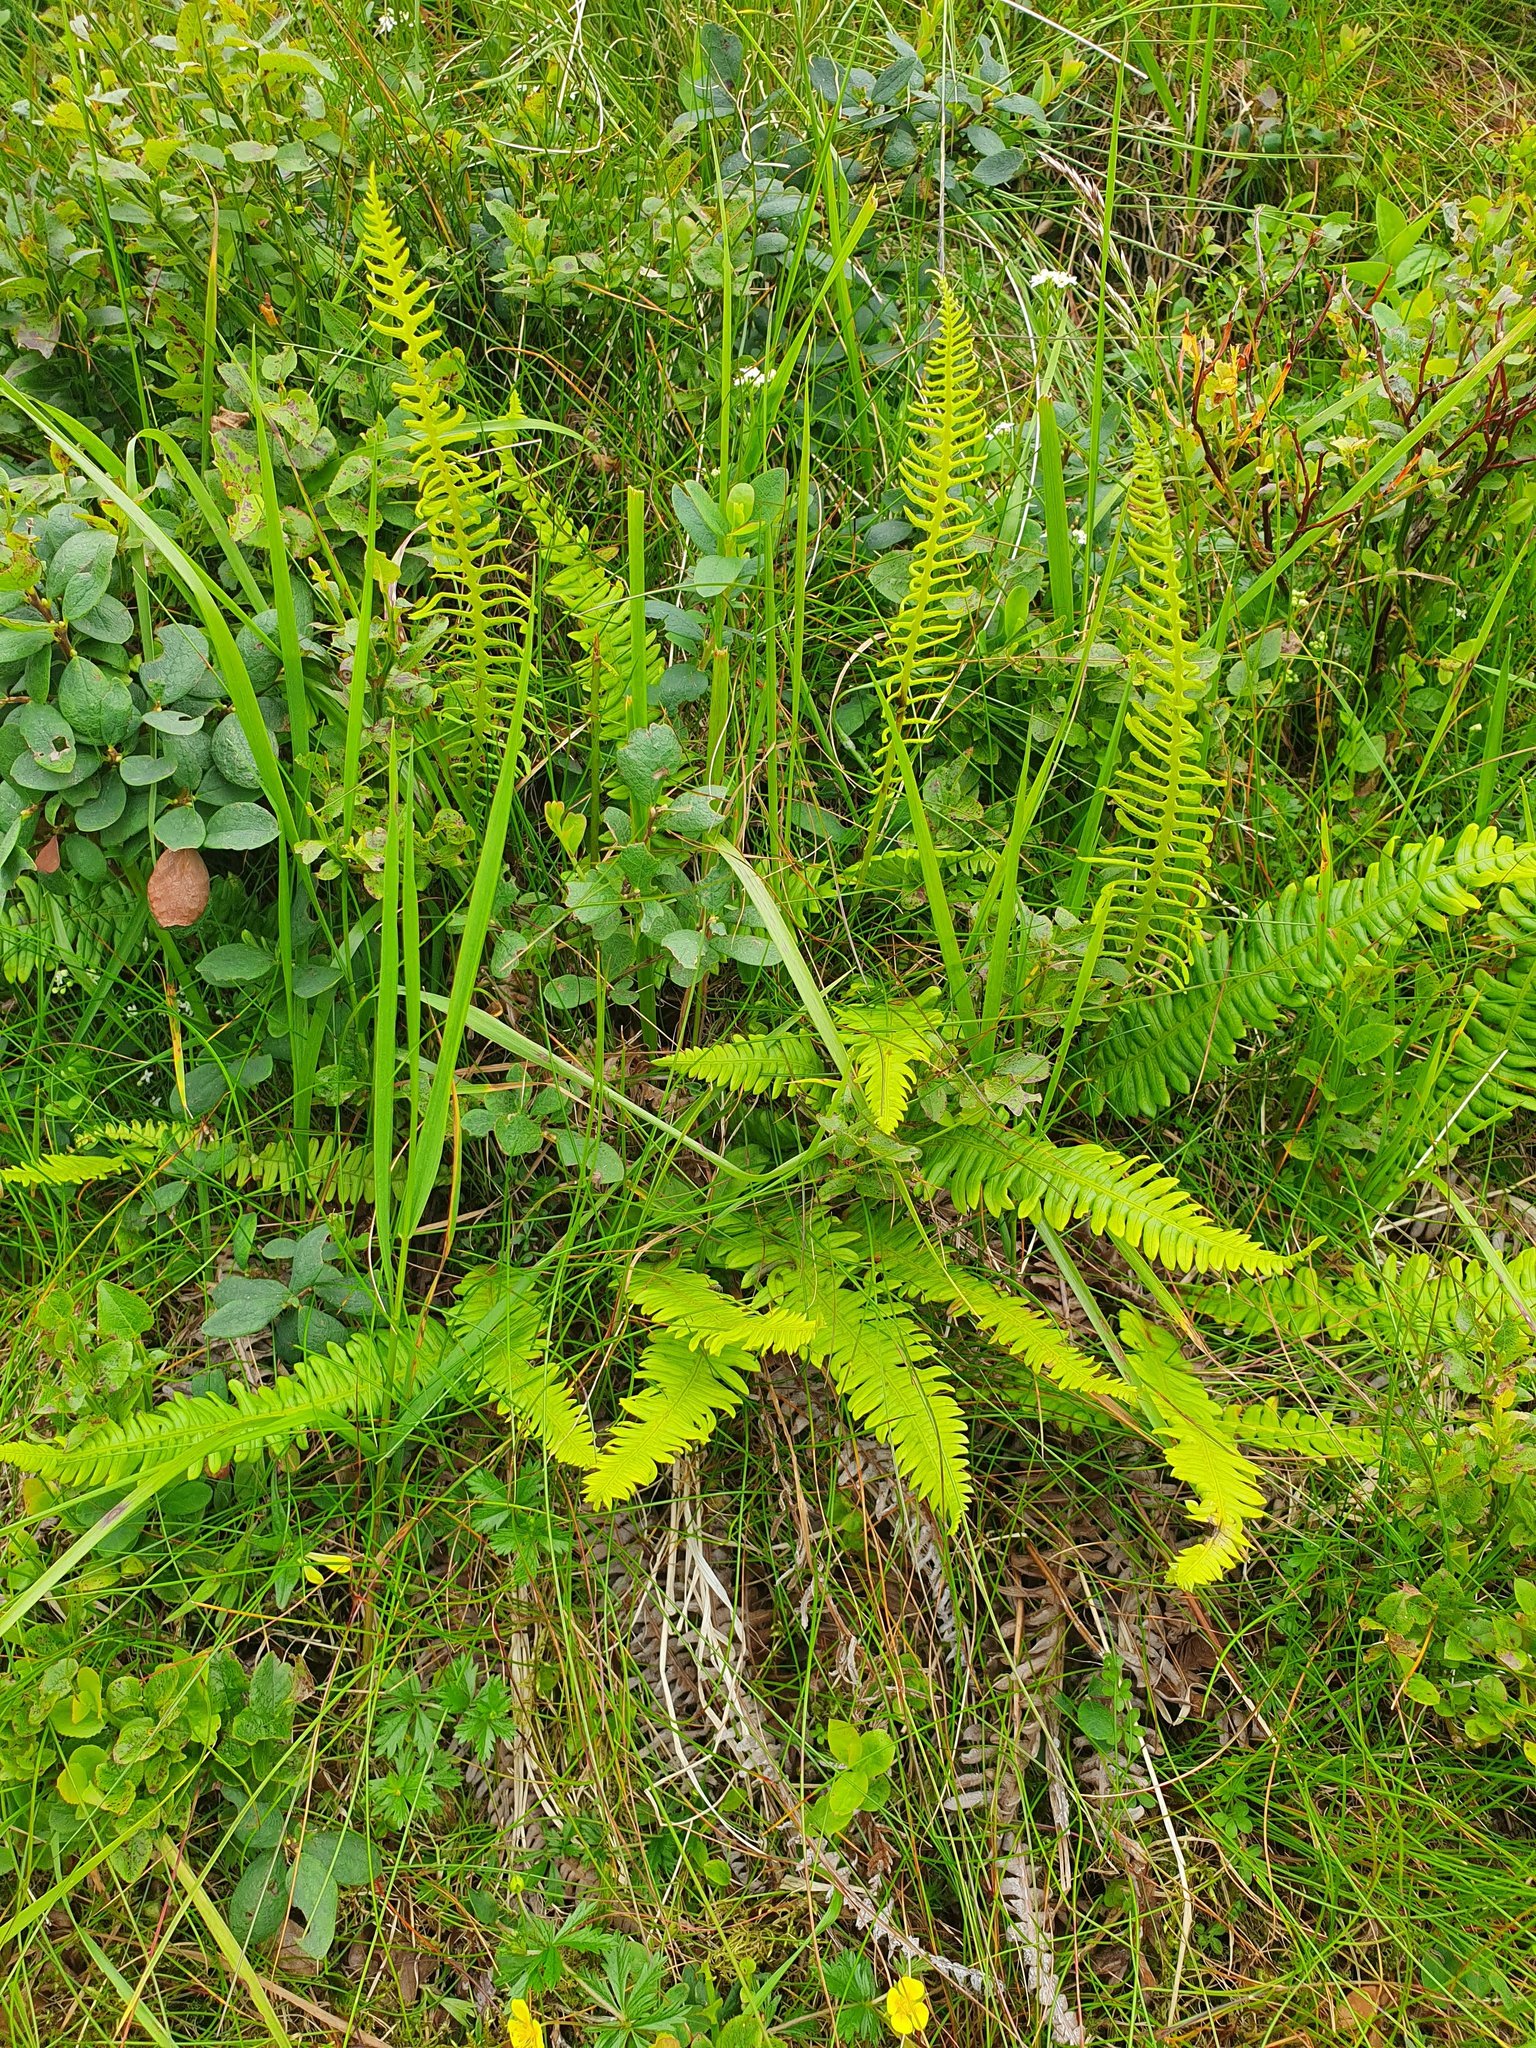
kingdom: Plantae
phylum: Tracheophyta
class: Polypodiopsida
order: Polypodiales
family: Blechnaceae
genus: Struthiopteris
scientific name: Struthiopteris spicant
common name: Deer fern
